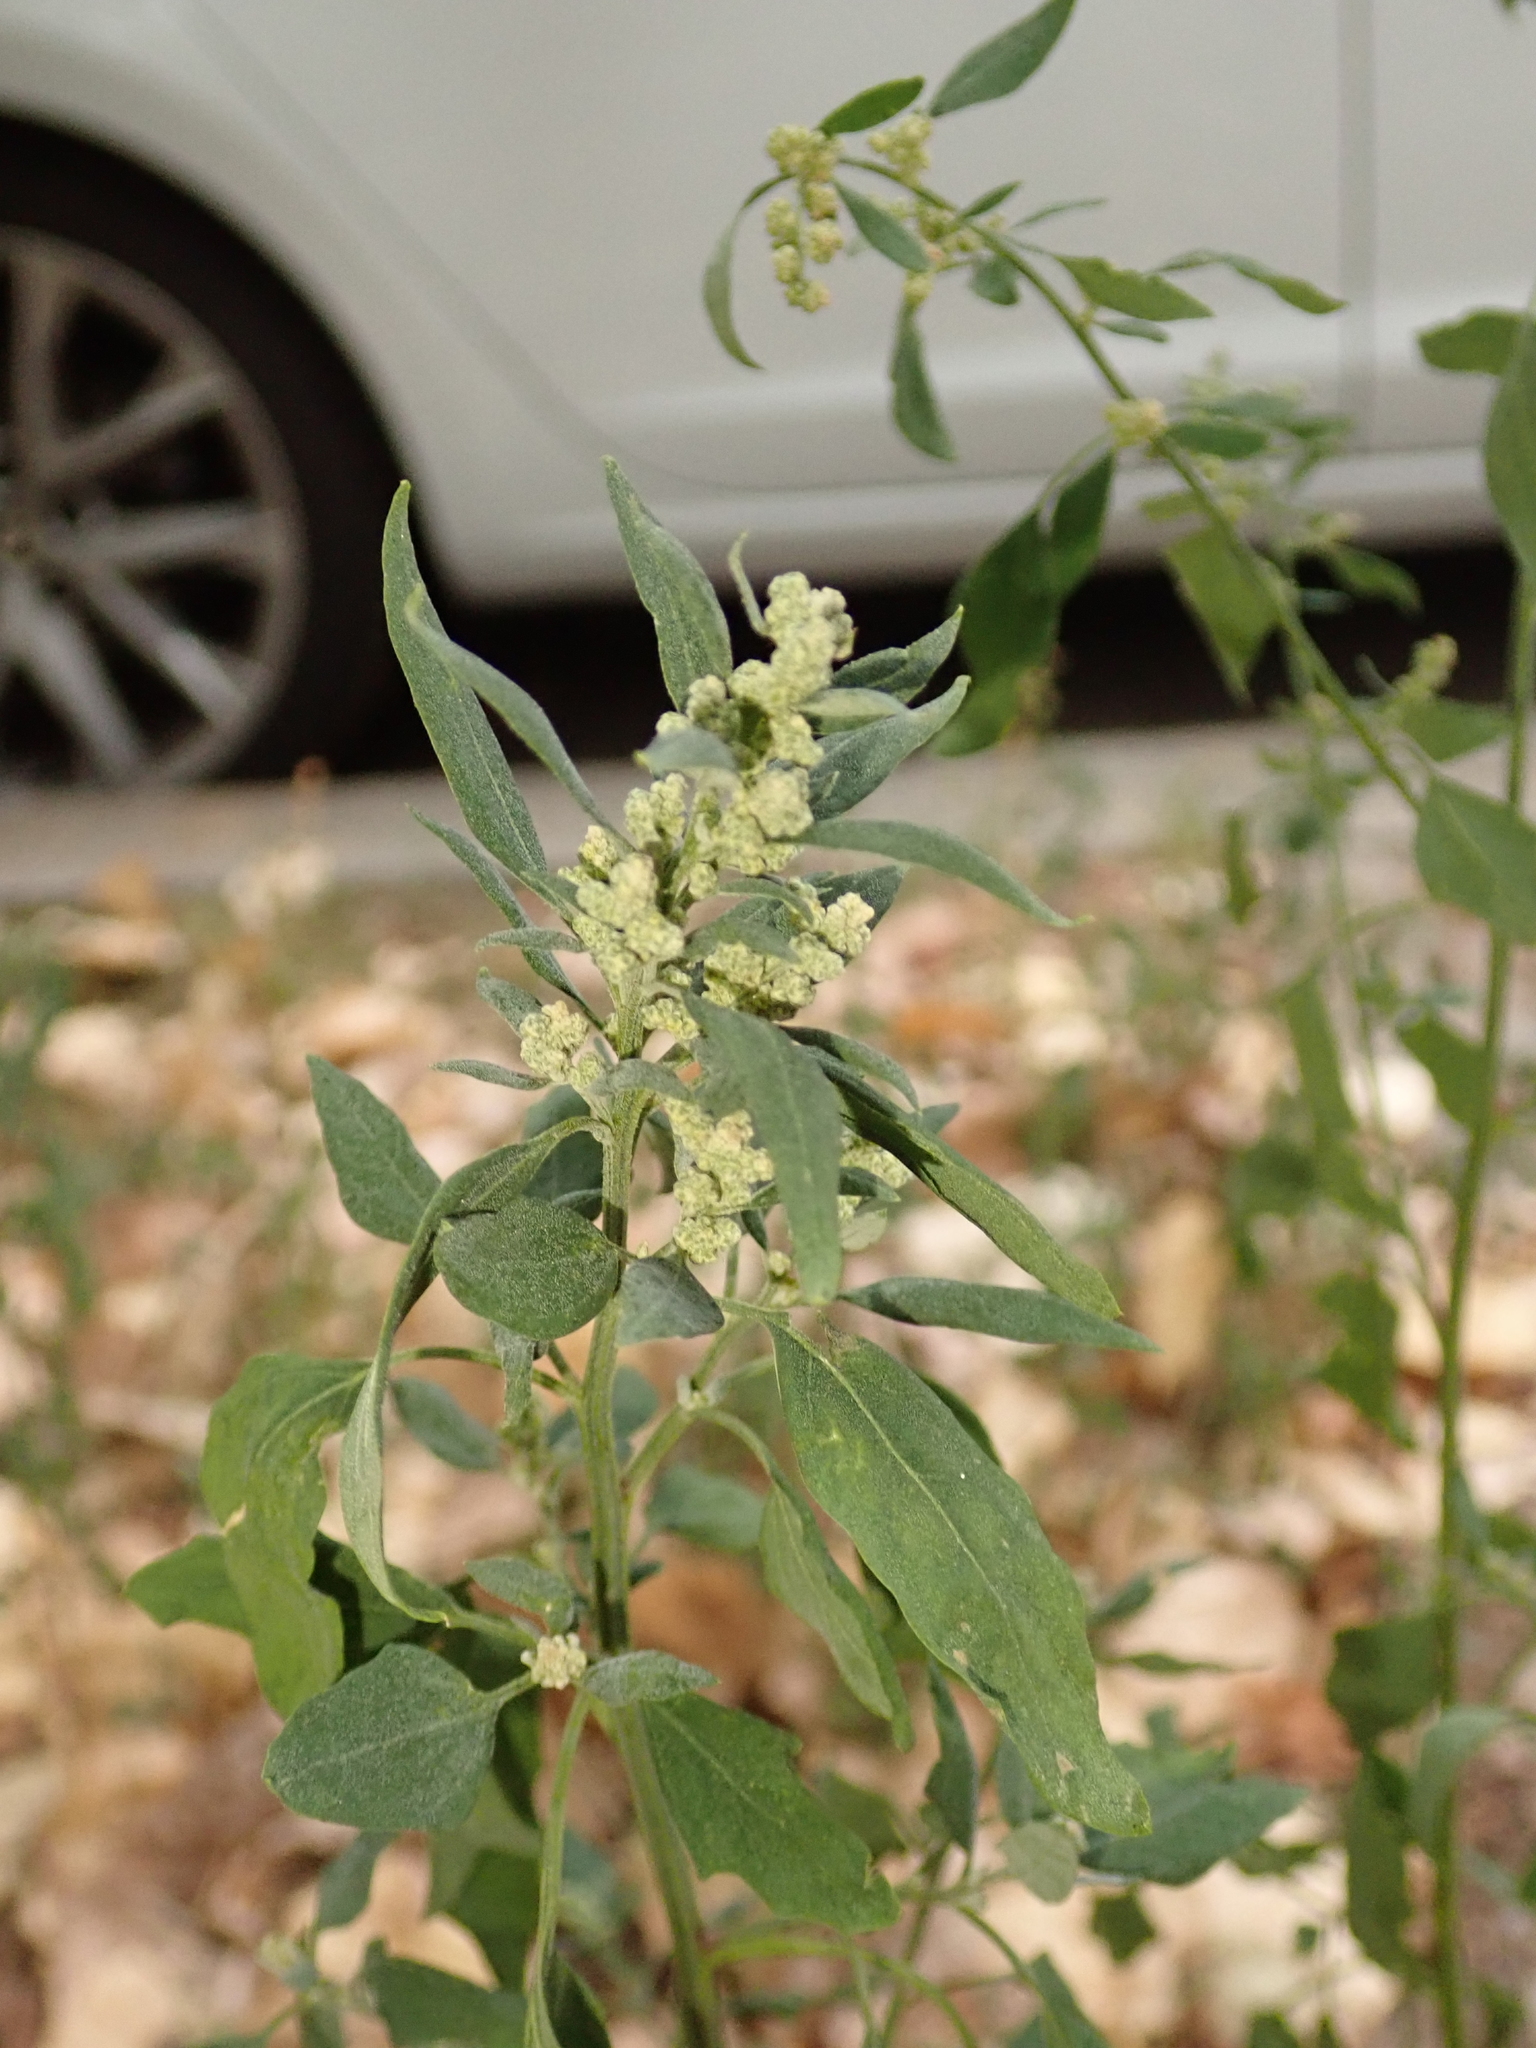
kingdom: Plantae
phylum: Tracheophyta
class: Magnoliopsida
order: Caryophyllales
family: Amaranthaceae
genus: Chenopodium
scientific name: Chenopodium album
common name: Fat-hen
